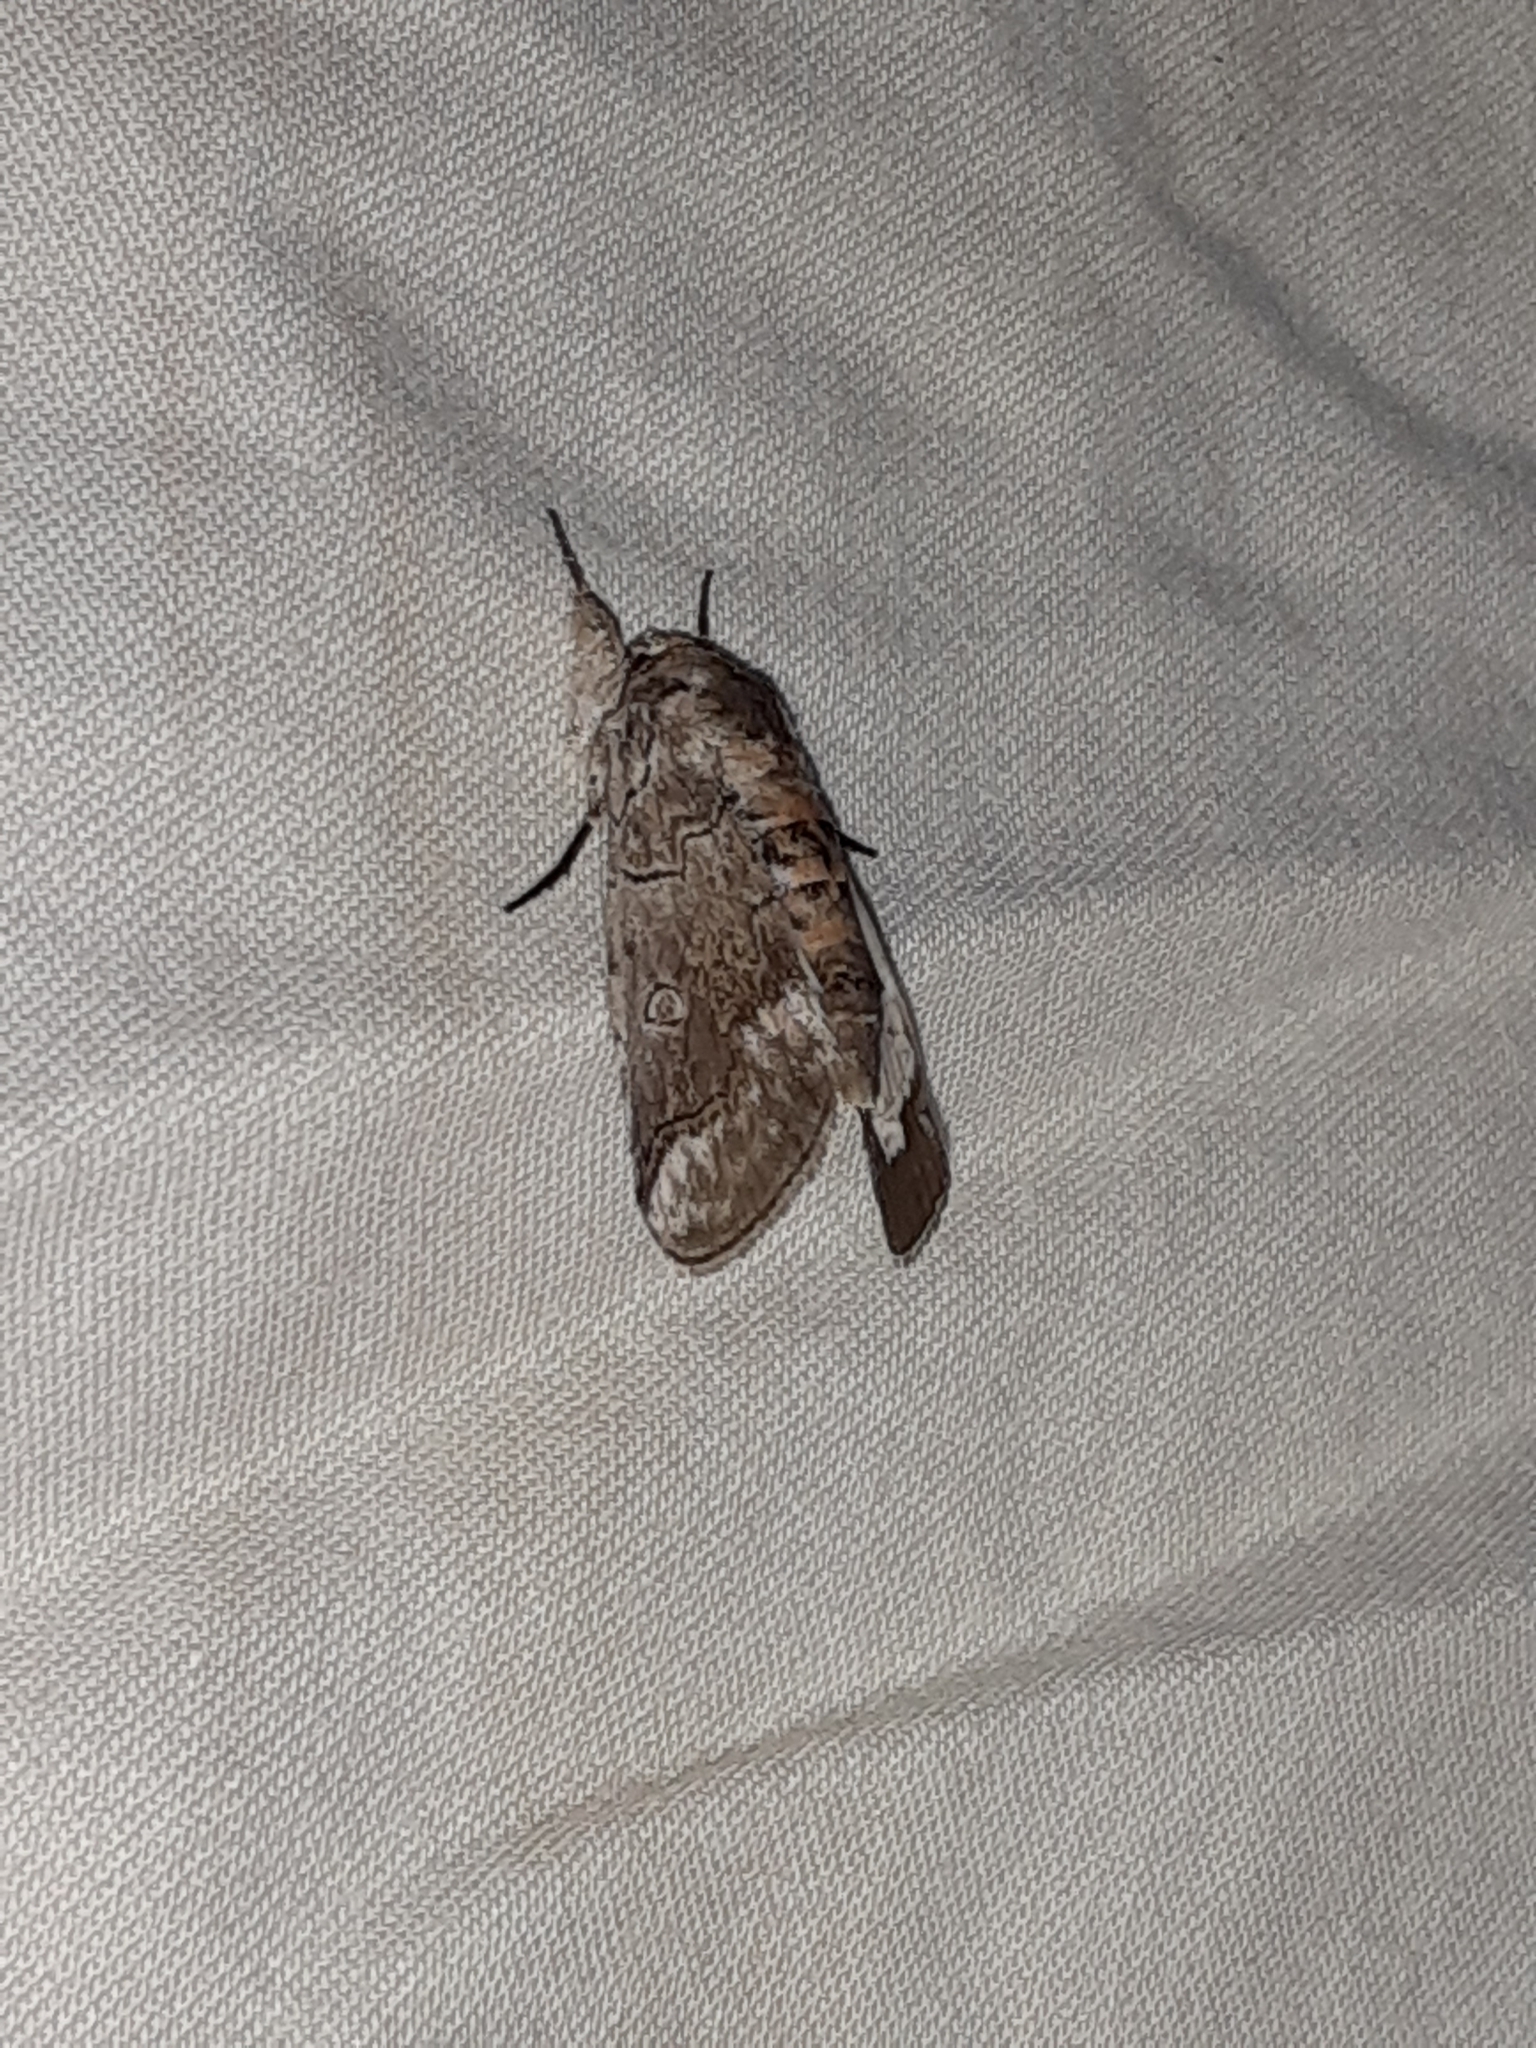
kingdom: Animalia
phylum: Arthropoda
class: Insecta
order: Lepidoptera
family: Nolidae
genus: Motya
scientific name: Motya
